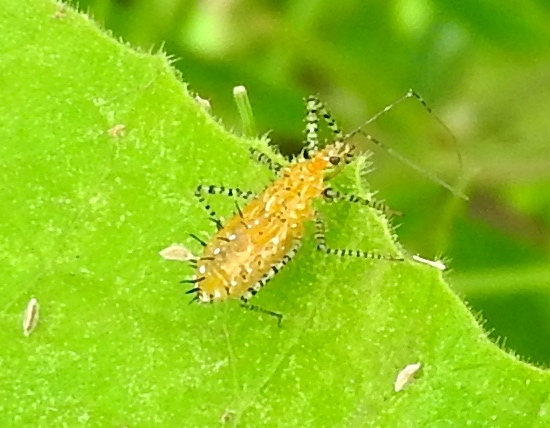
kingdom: Animalia
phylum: Arthropoda
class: Insecta
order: Hemiptera
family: Reduviidae
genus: Pselliopus
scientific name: Pselliopus
